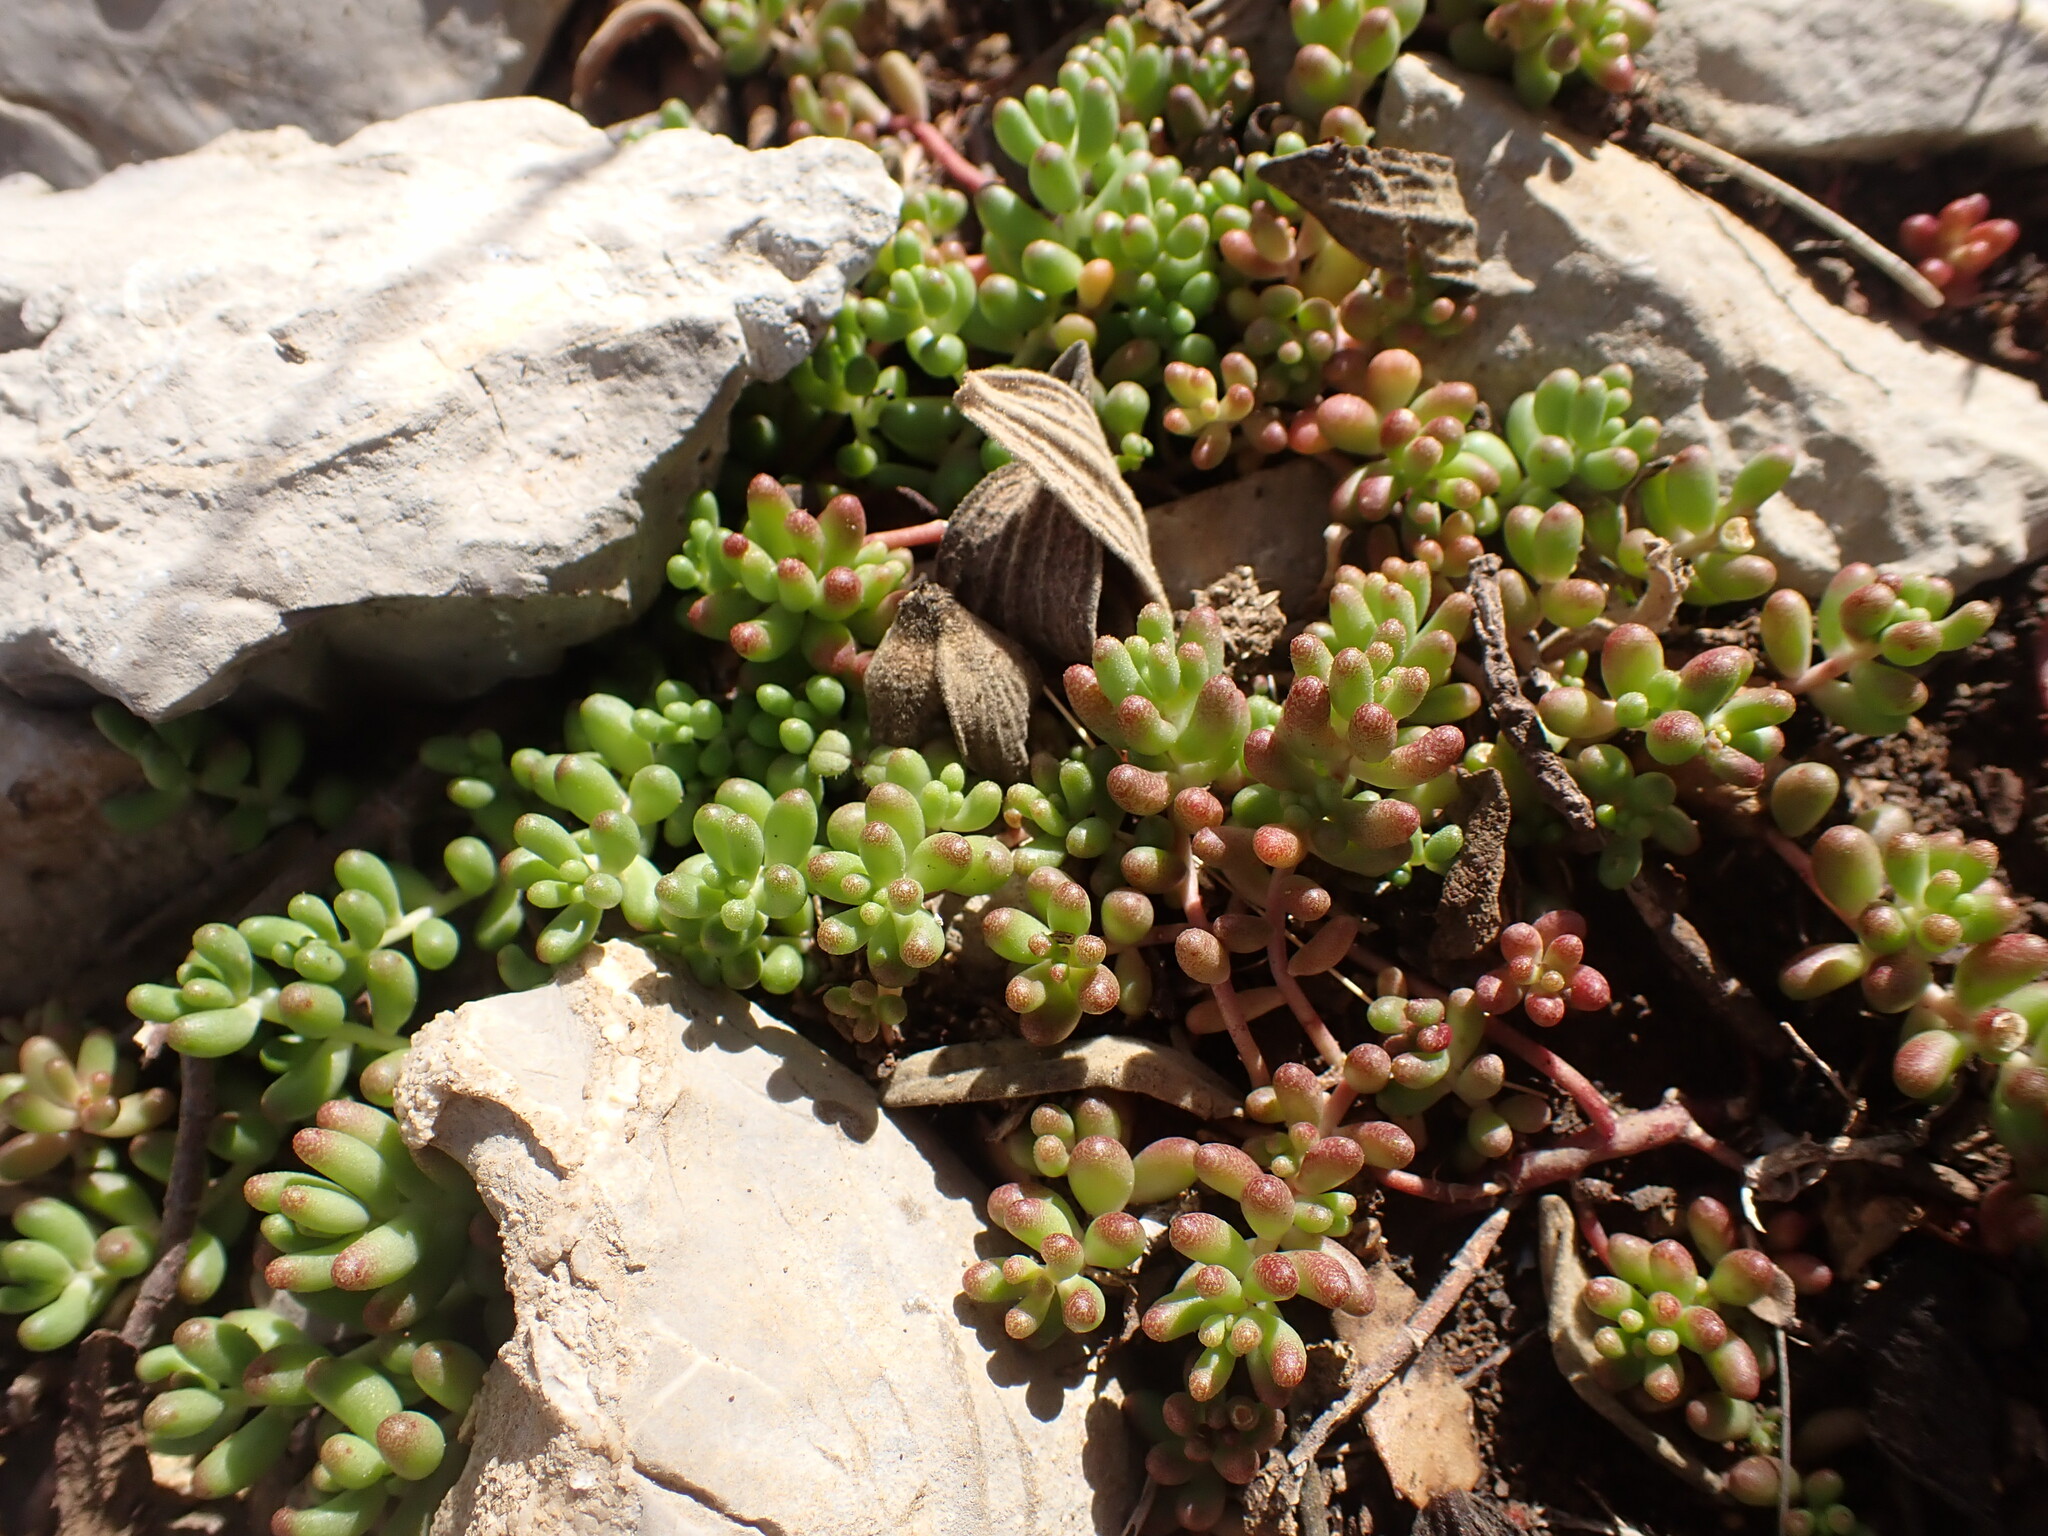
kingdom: Plantae
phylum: Tracheophyta
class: Magnoliopsida
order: Saxifragales
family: Crassulaceae
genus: Sedum
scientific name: Sedum album
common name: White stonecrop
